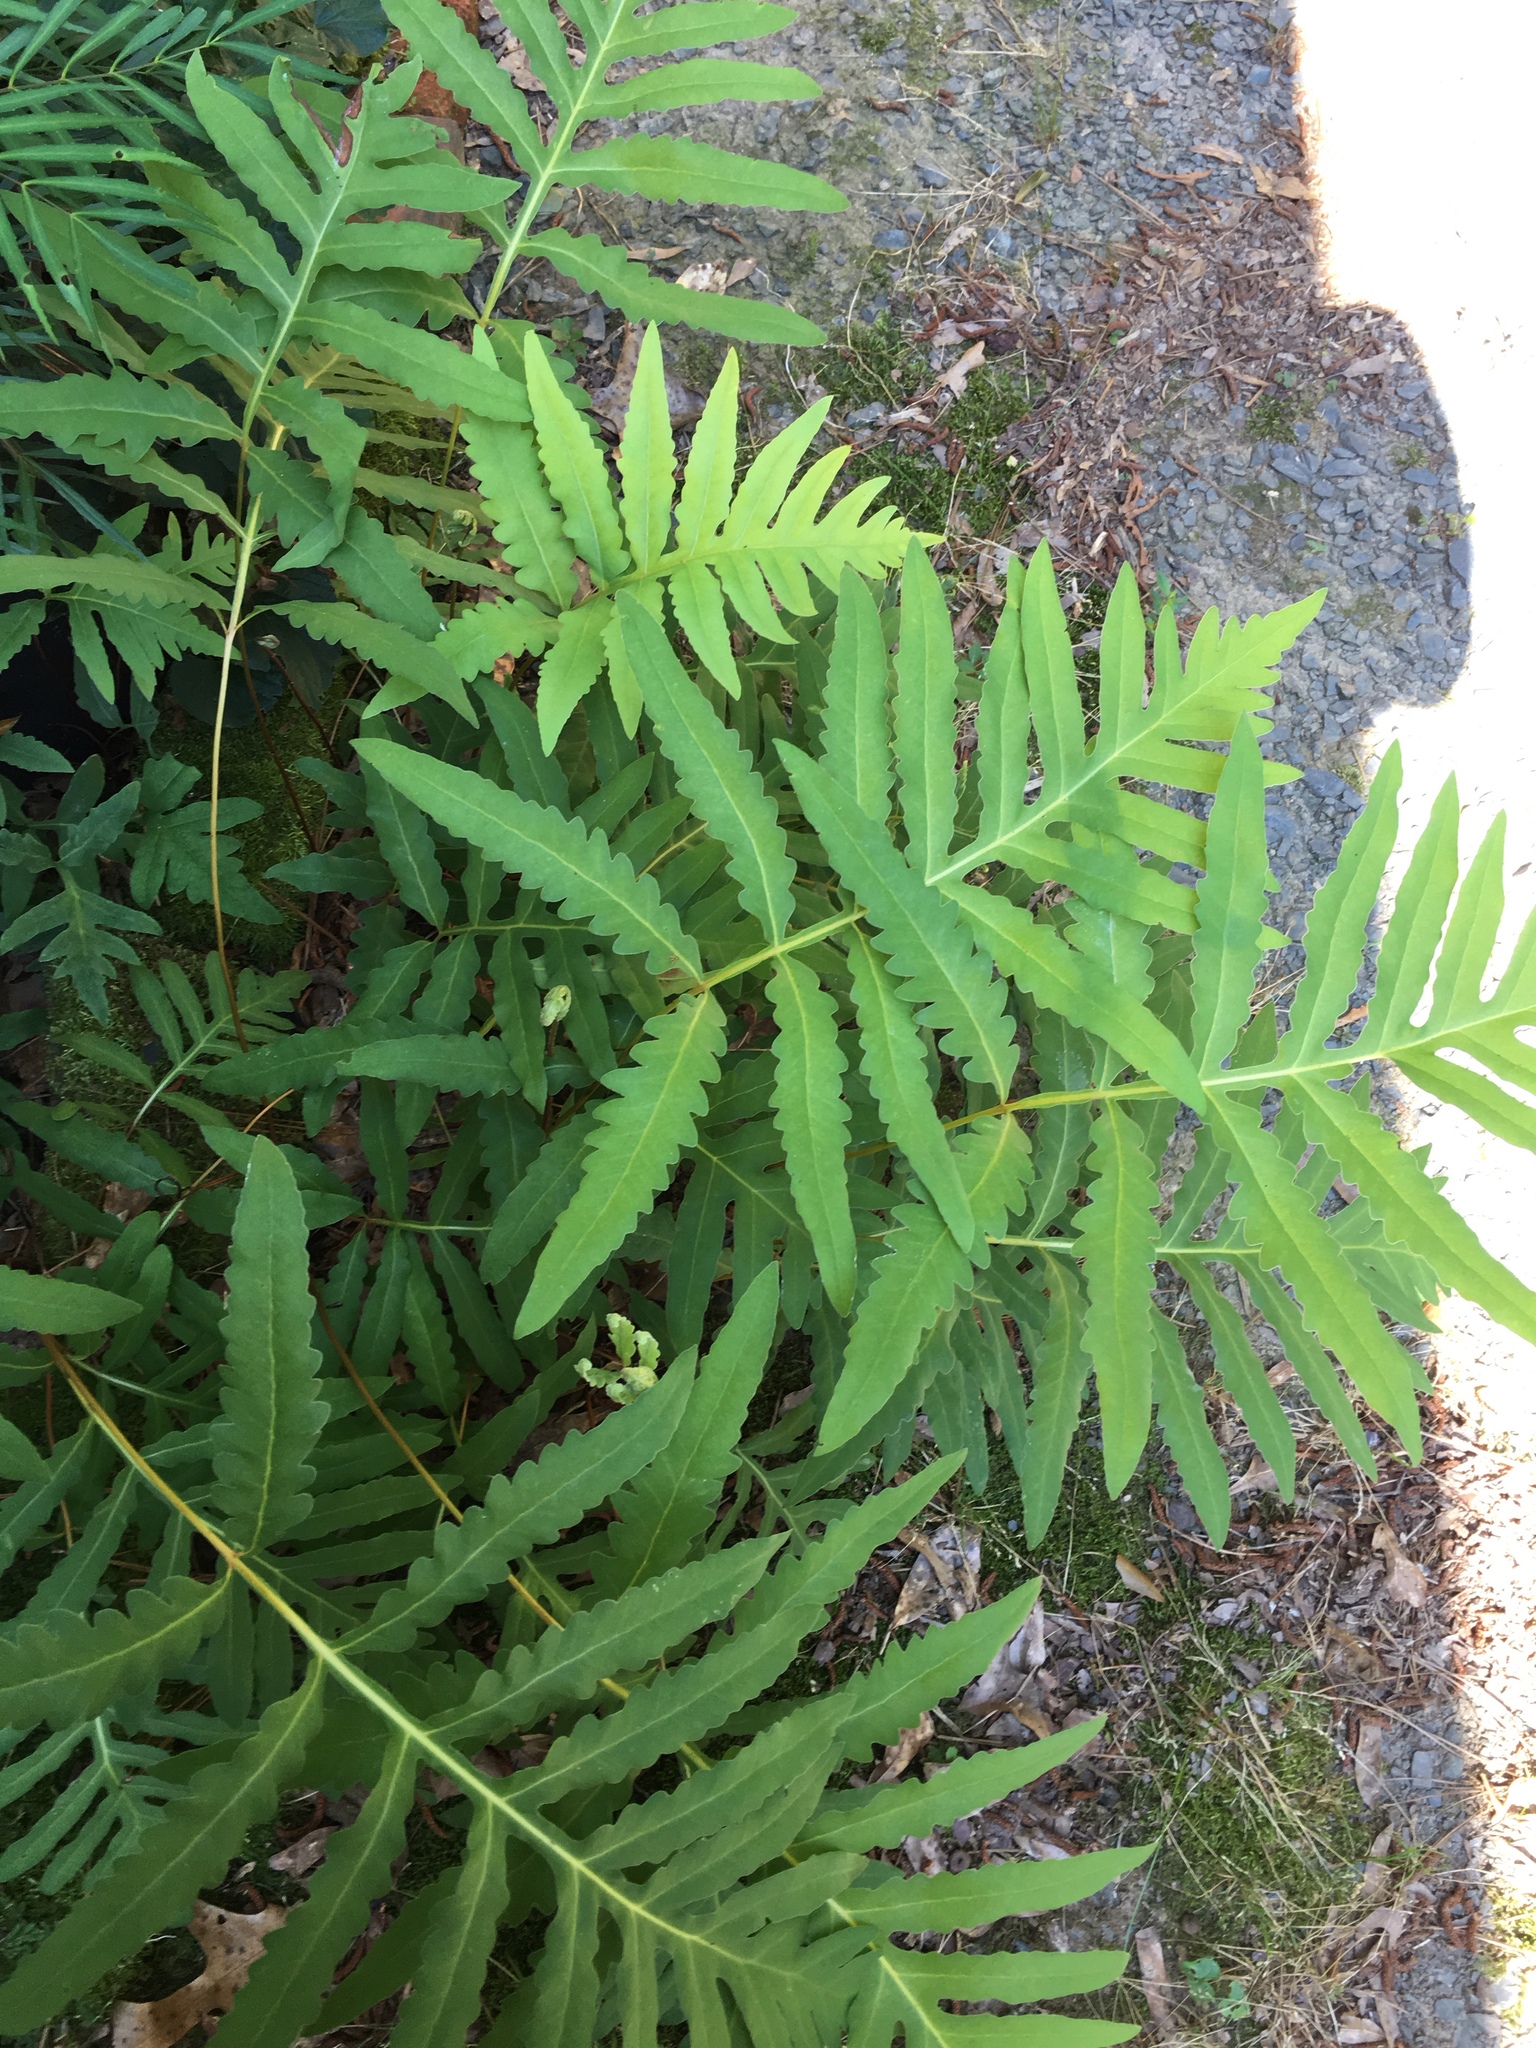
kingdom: Plantae
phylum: Tracheophyta
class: Polypodiopsida
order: Polypodiales
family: Onocleaceae
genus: Onoclea
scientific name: Onoclea sensibilis
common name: Sensitive fern
